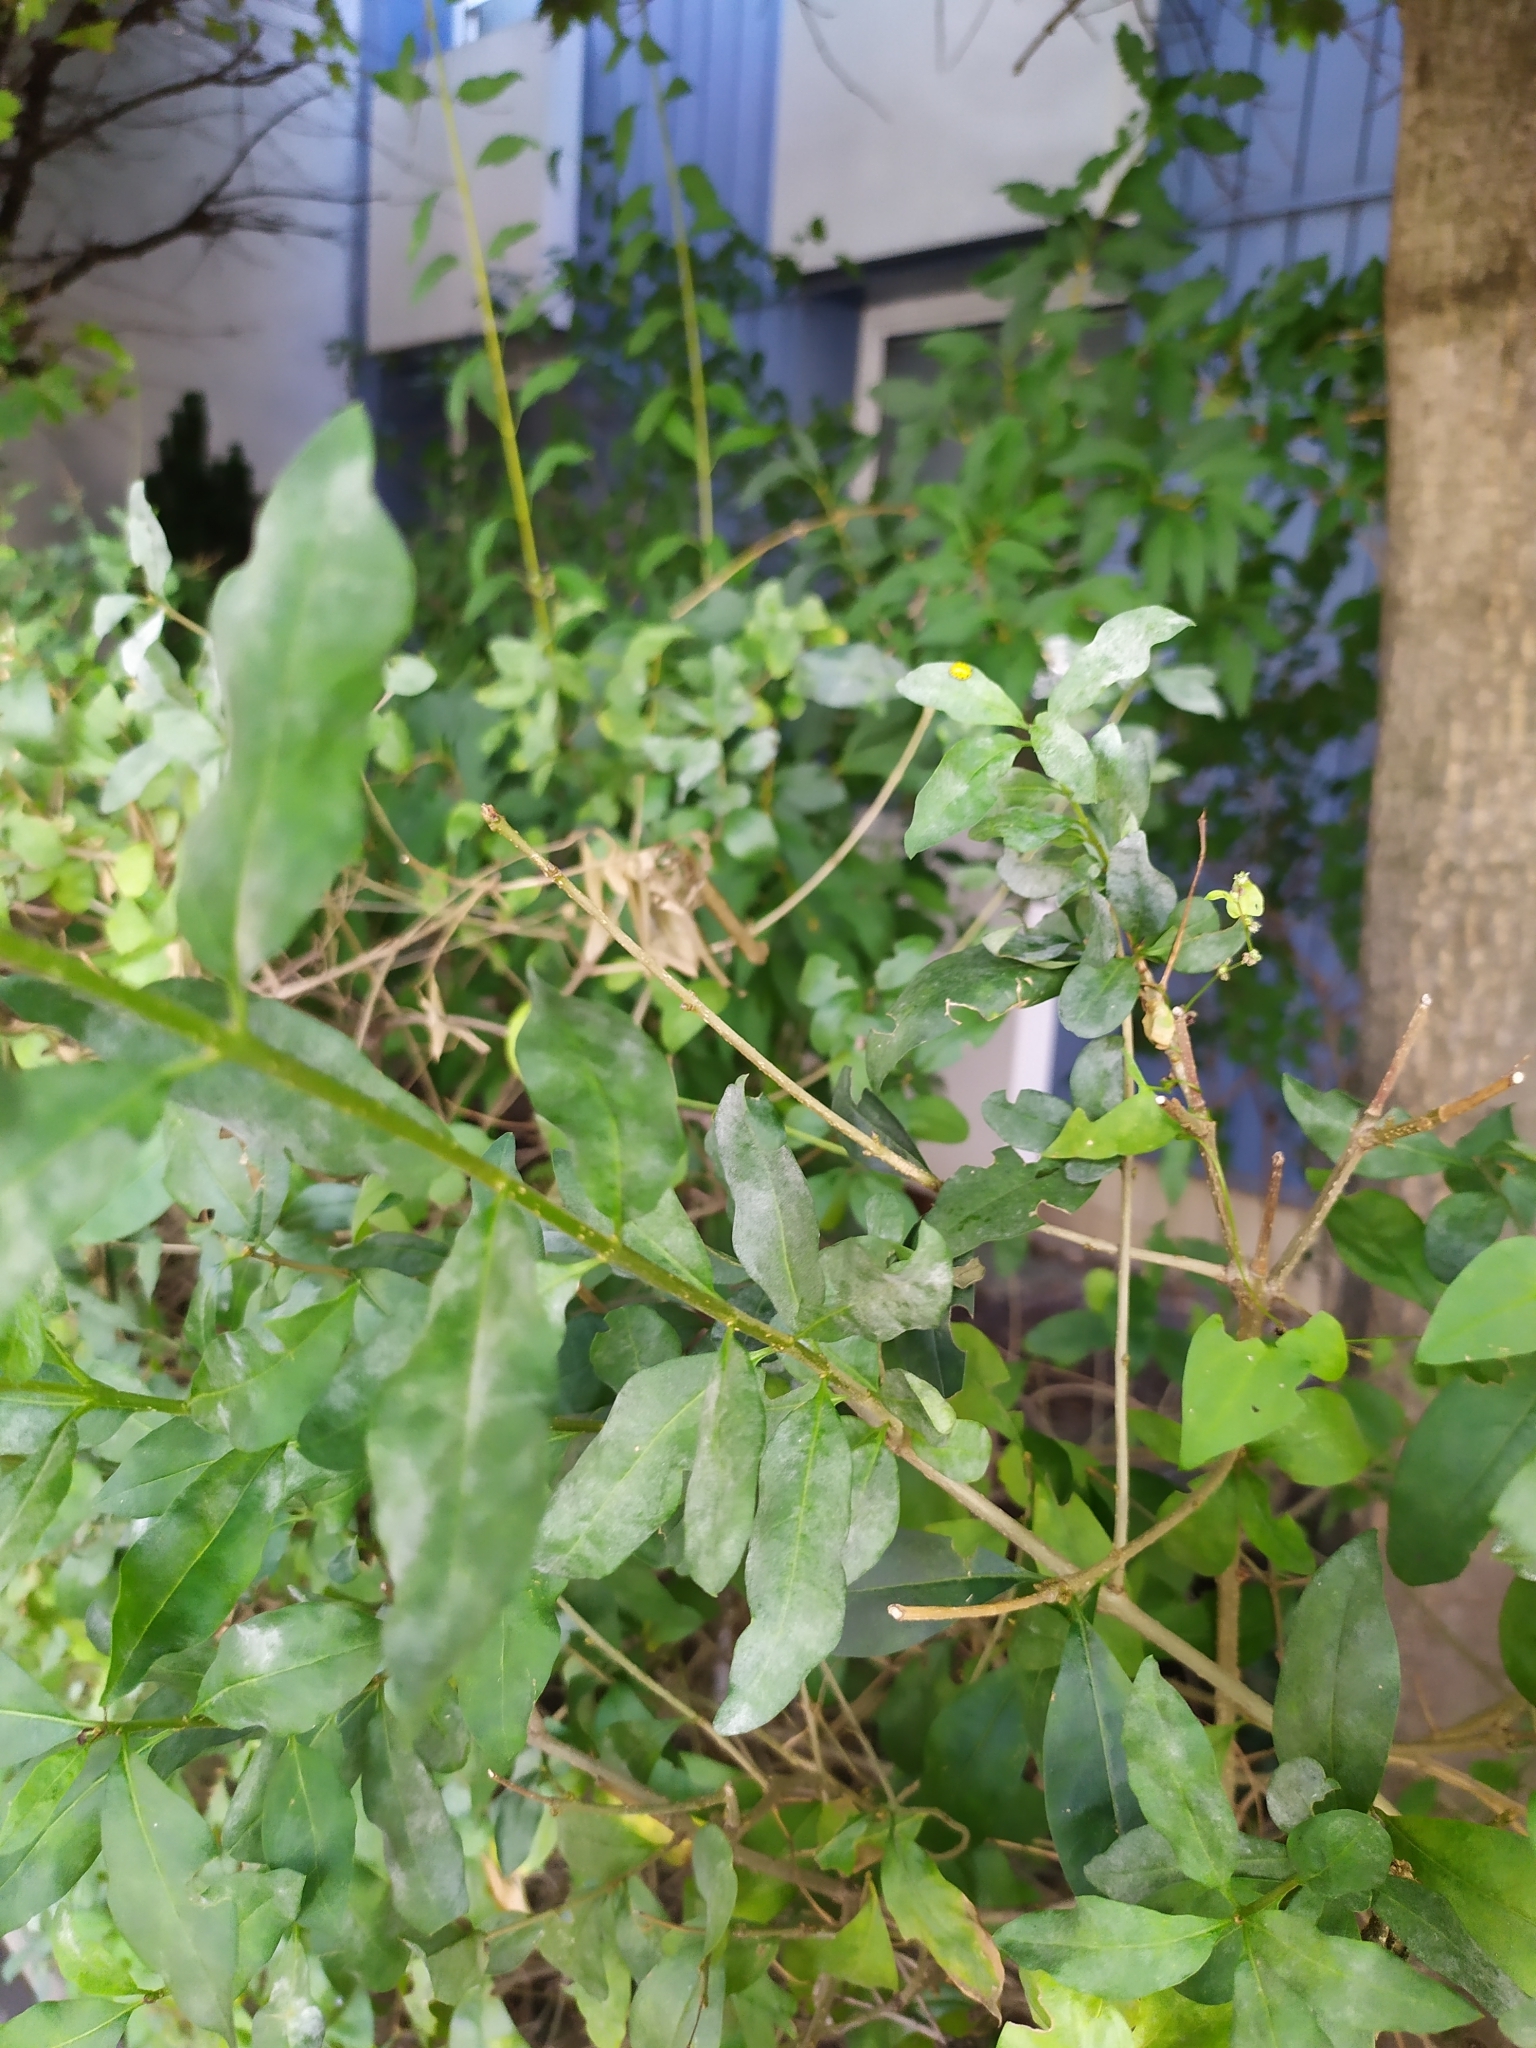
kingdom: Fungi
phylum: Ascomycota
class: Leotiomycetes
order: Helotiales
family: Erysiphaceae
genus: Erysiphe
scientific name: Erysiphe syringae
